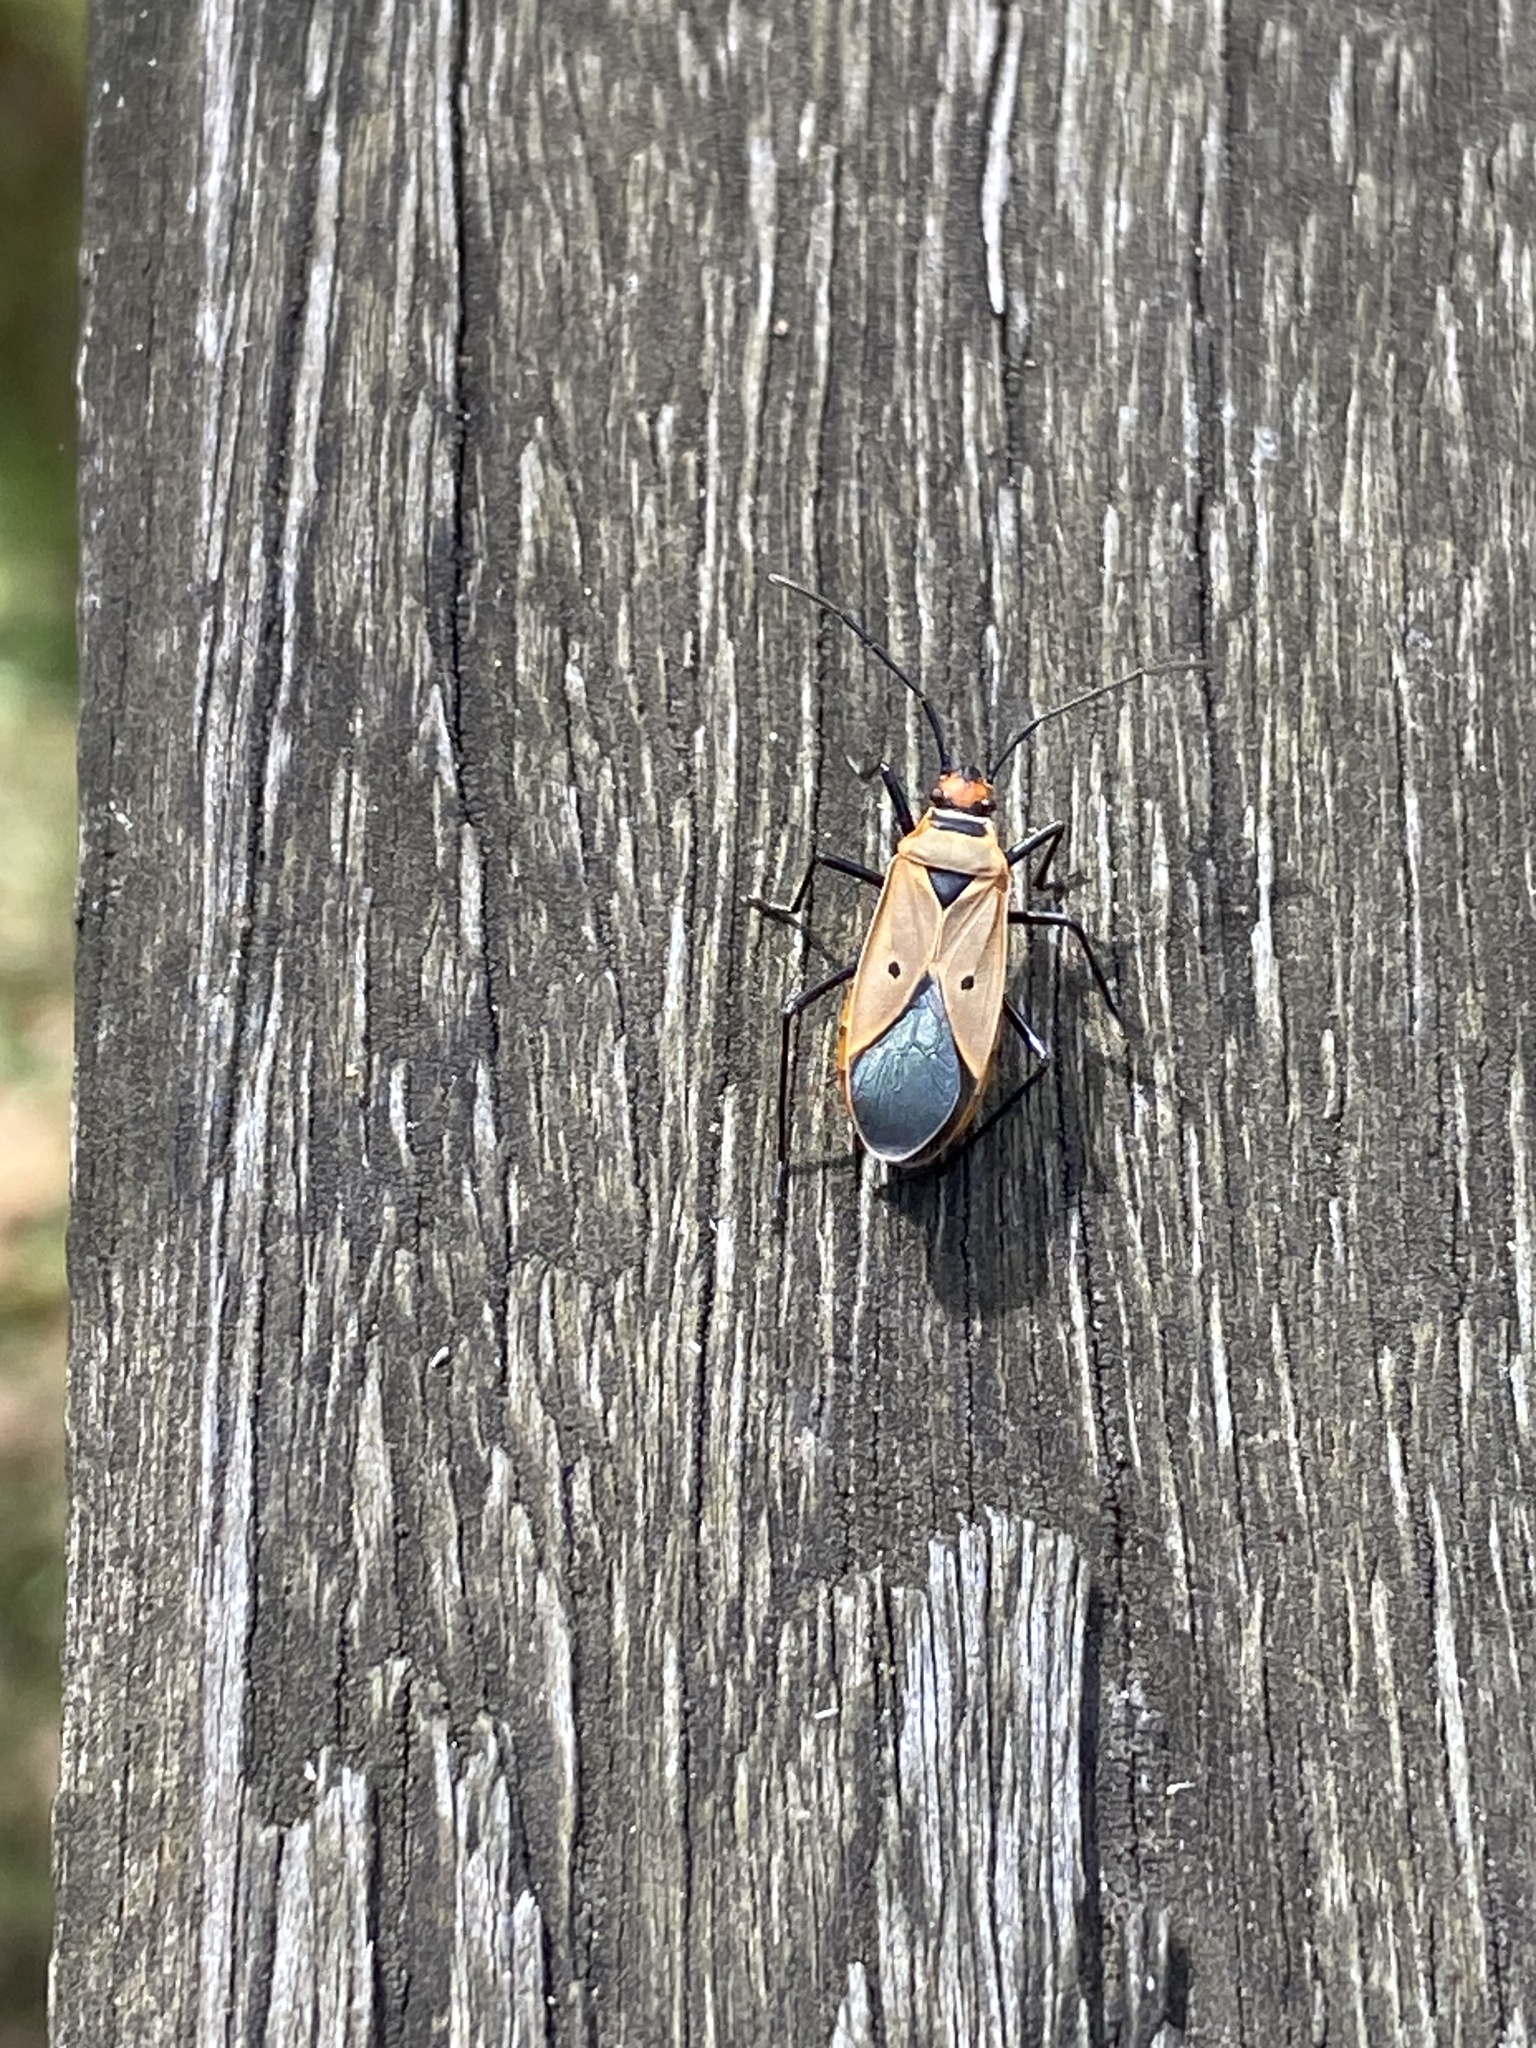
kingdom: Animalia
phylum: Arthropoda
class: Insecta
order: Hemiptera
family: Pyrrhocoridae
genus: Dysdercus
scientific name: Dysdercus sidae
